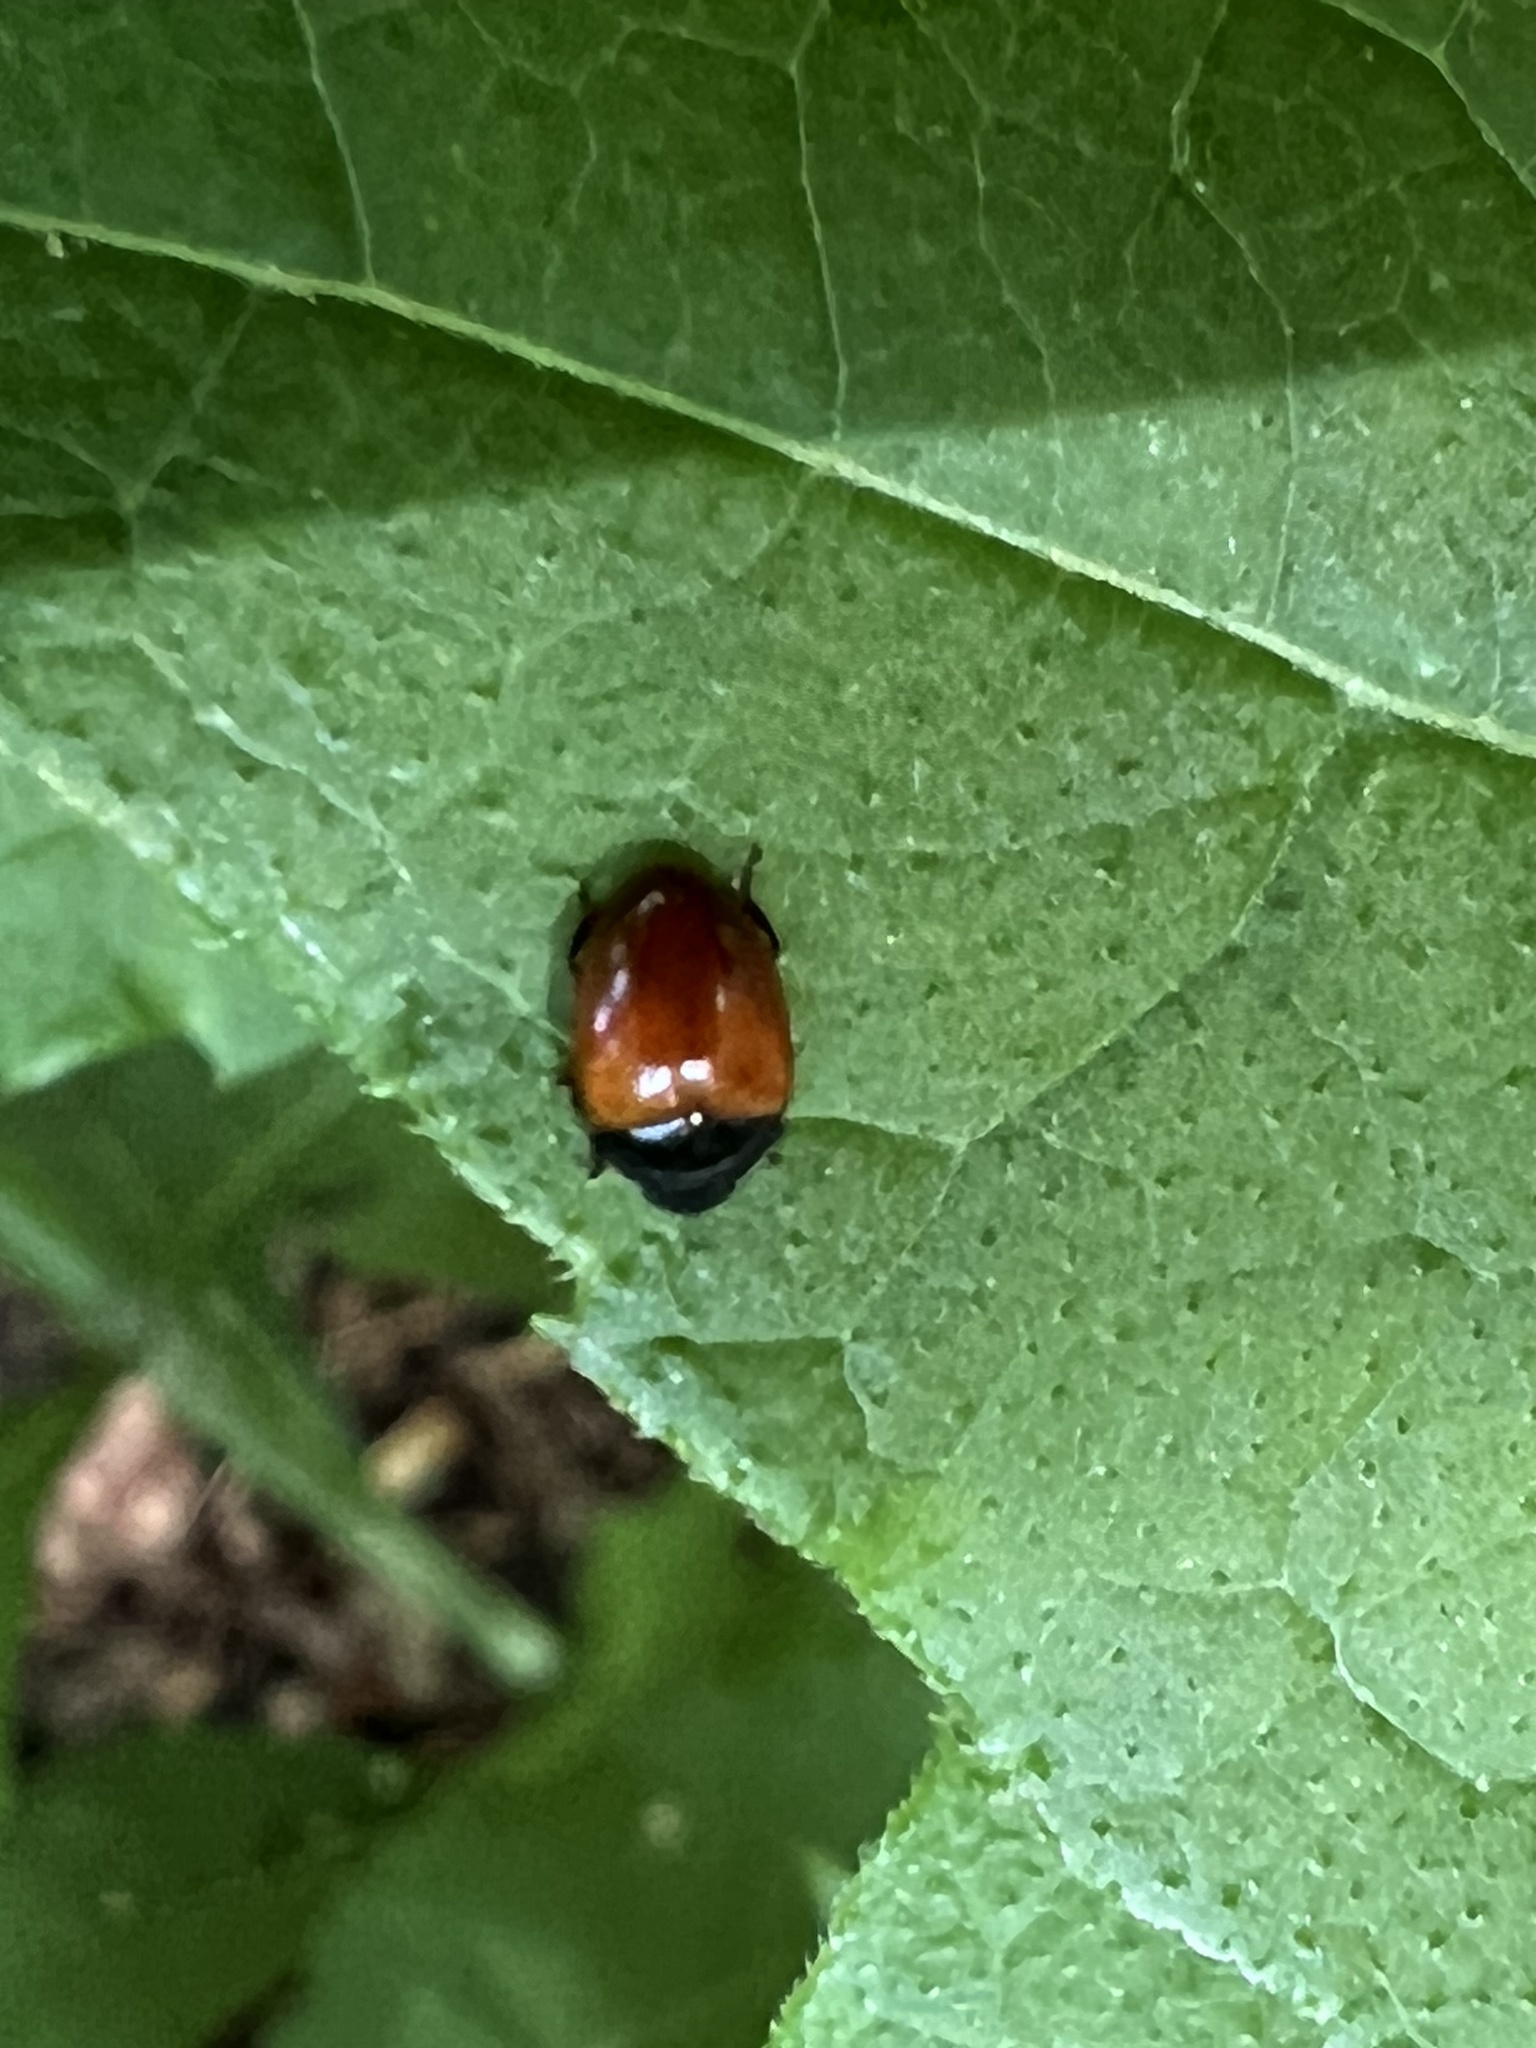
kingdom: Animalia
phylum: Arthropoda
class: Insecta
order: Coleoptera
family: Erotylidae
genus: Tritoma
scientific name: Tritoma sanguinipennis
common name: Red-winged tritoma
